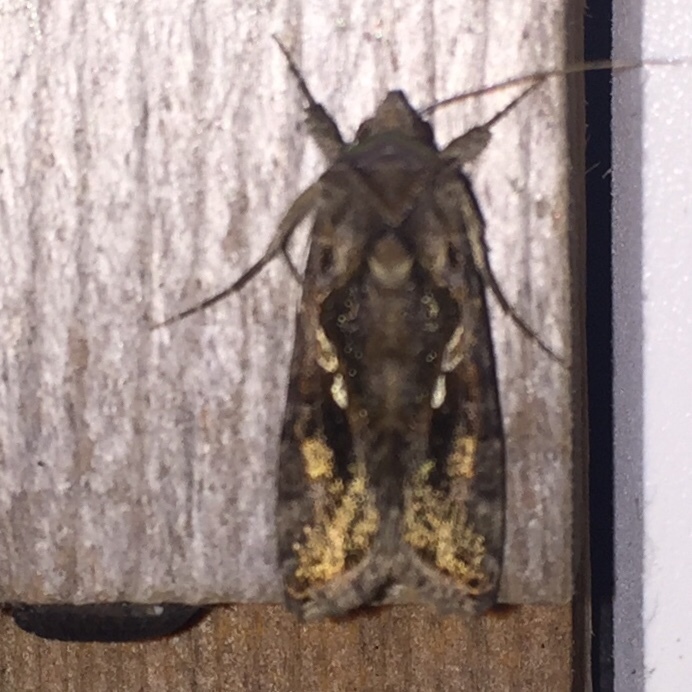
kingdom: Animalia
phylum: Arthropoda
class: Insecta
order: Lepidoptera
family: Noctuidae
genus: Chrysodeixis
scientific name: Chrysodeixis includens
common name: Cutworm moth
